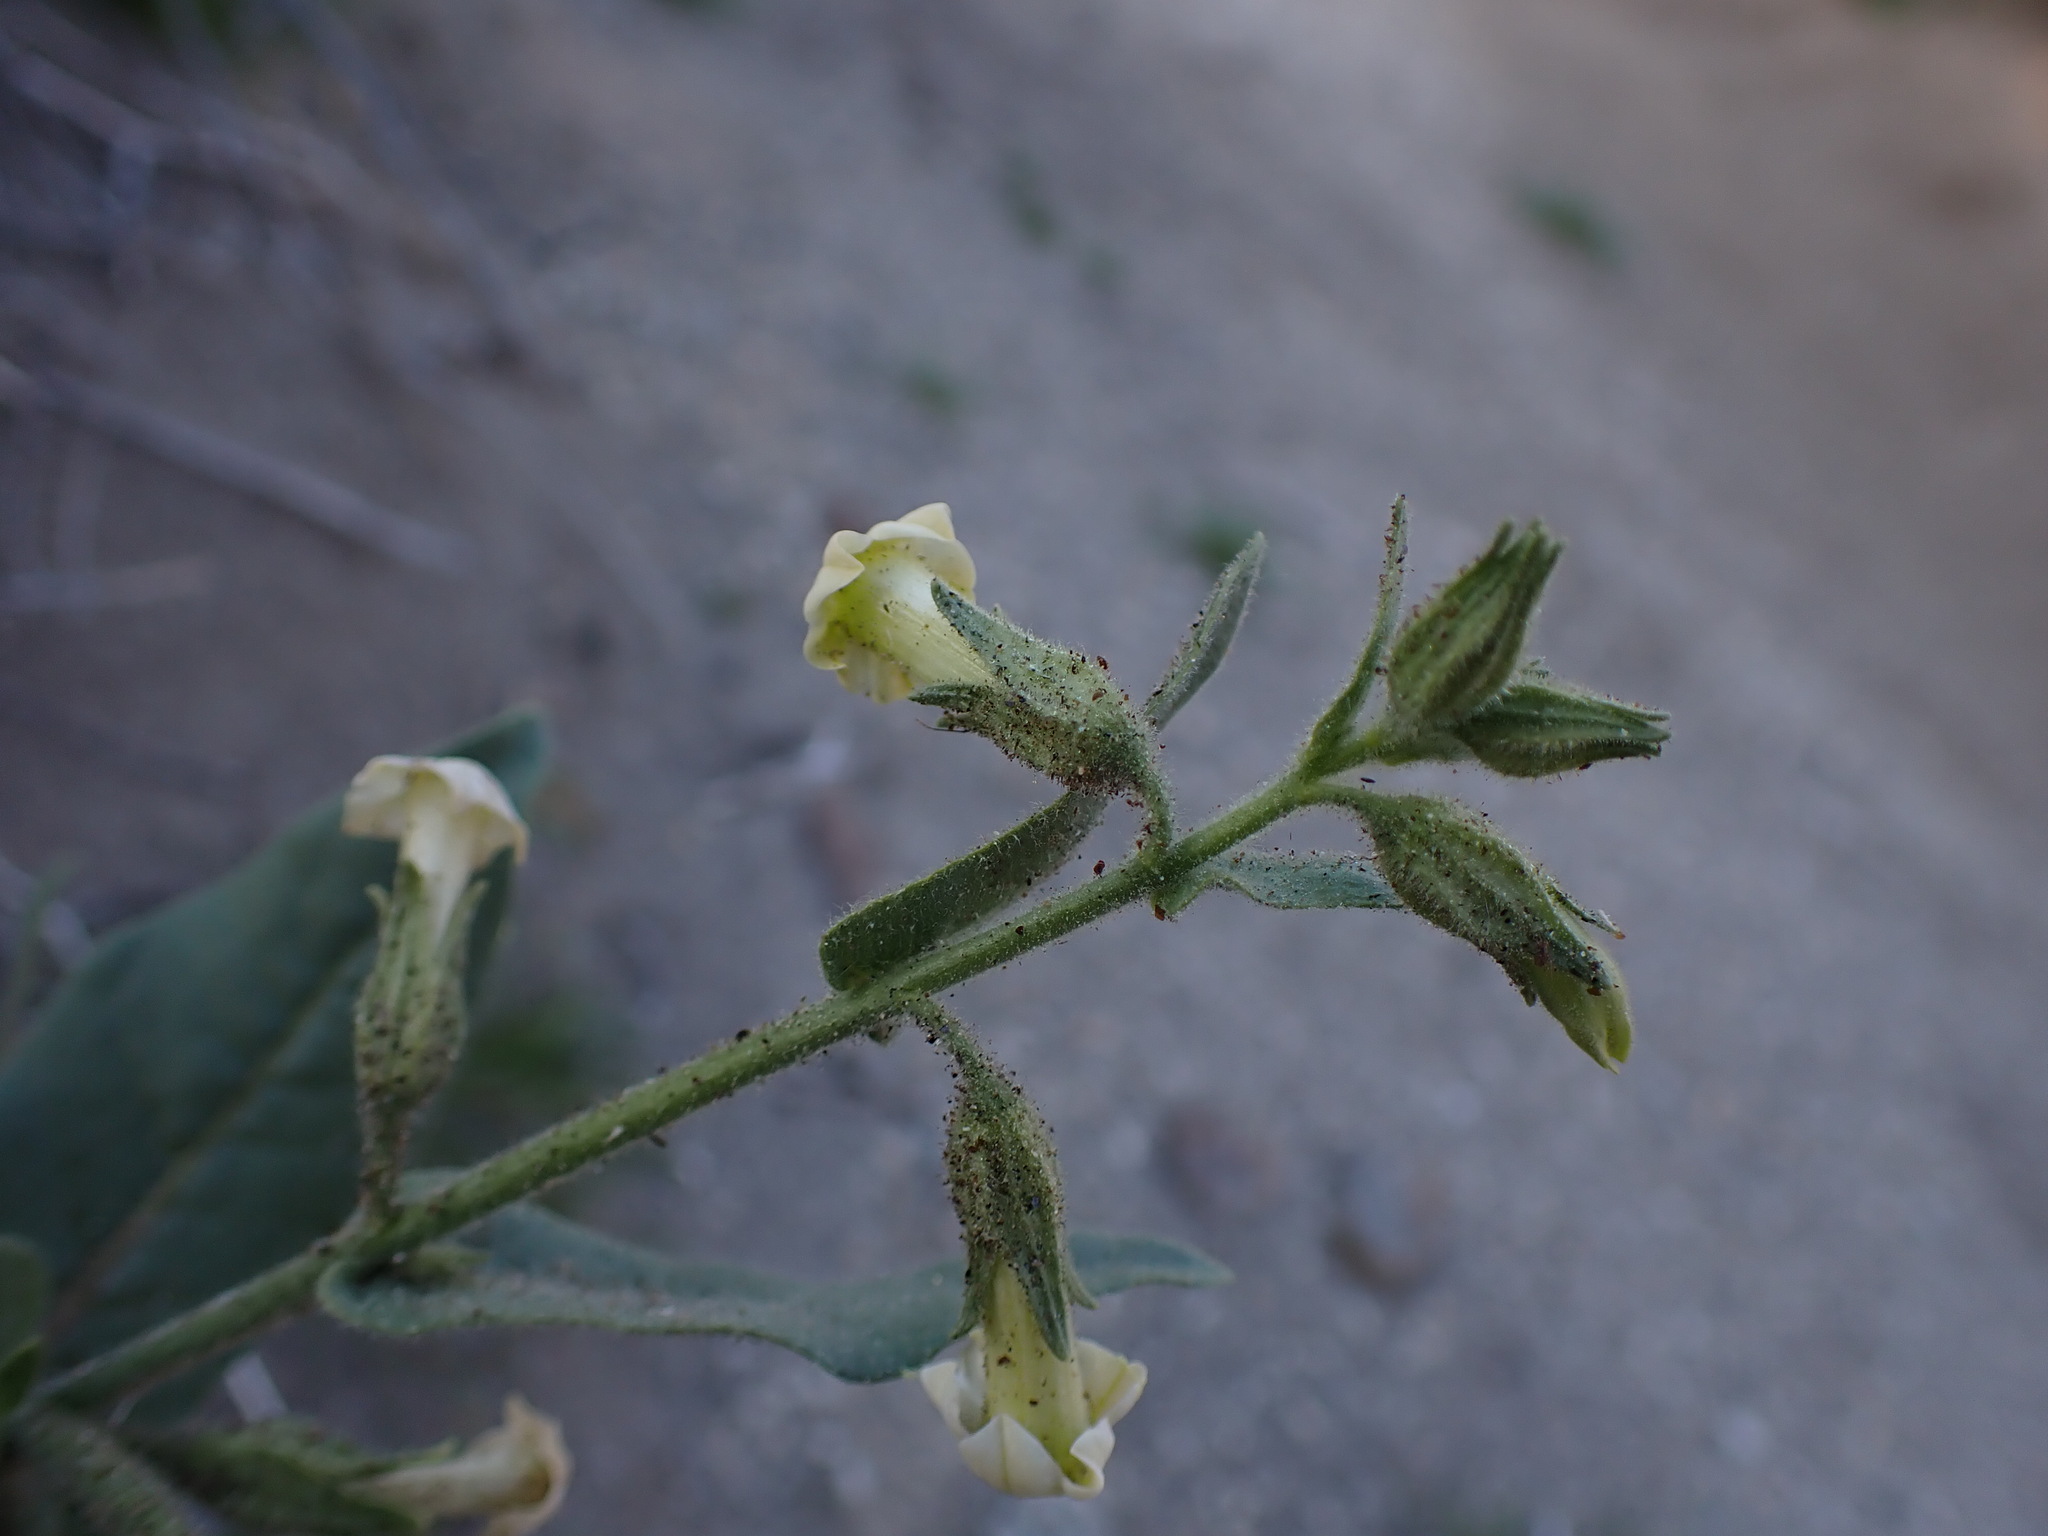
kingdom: Plantae
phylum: Tracheophyta
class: Magnoliopsida
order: Solanales
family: Solanaceae
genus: Nicotiana
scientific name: Nicotiana obtusifolia
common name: Desert tobacco
